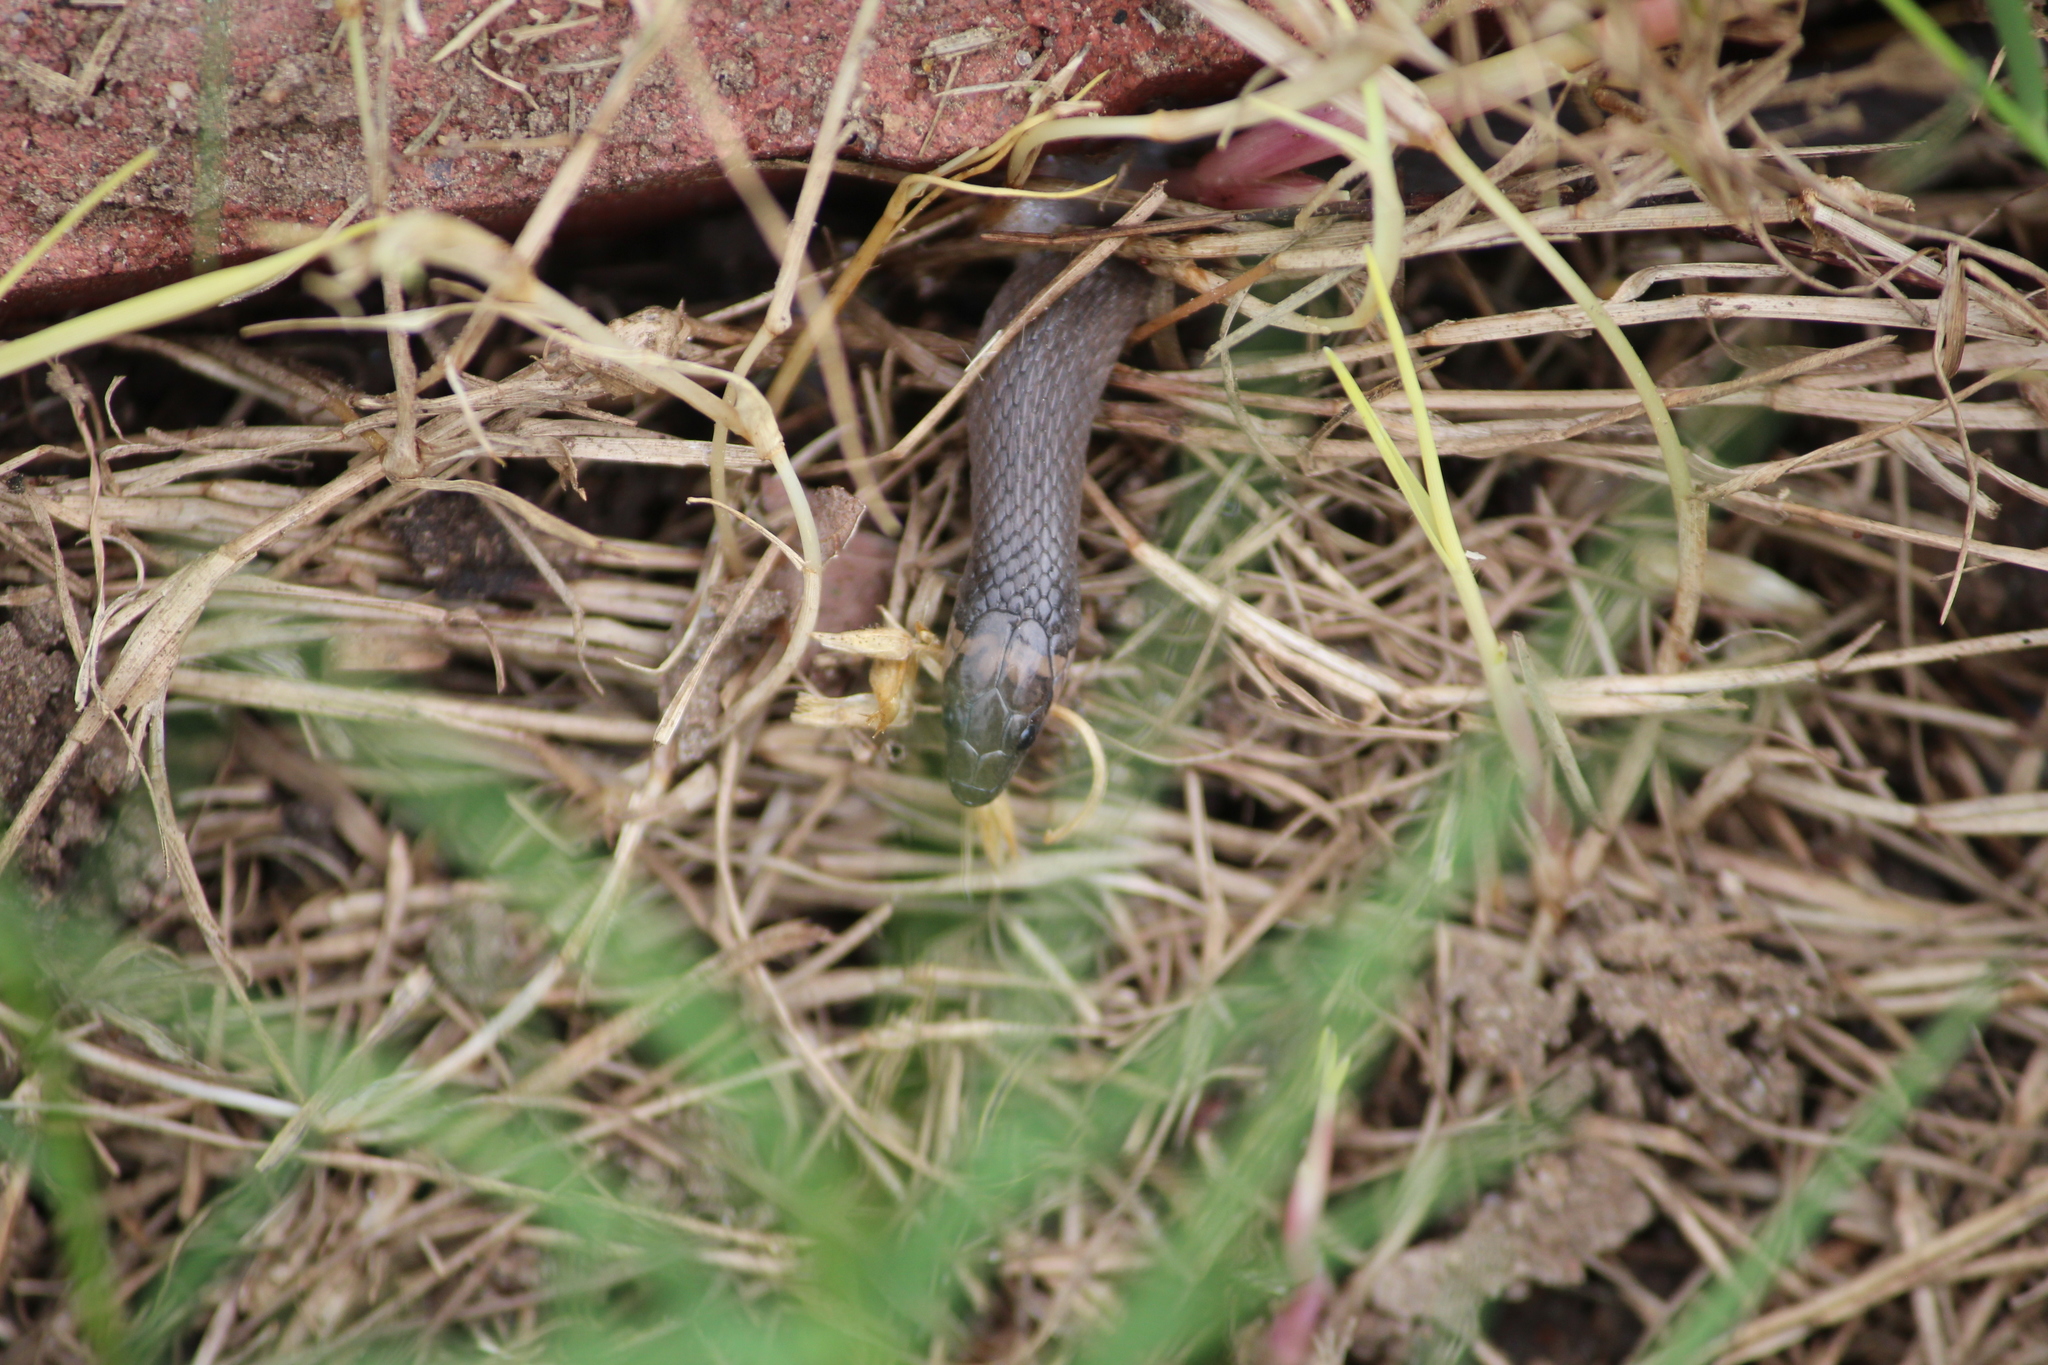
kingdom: Animalia
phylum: Chordata
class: Squamata
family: Colubridae
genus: Haldea
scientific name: Haldea striatula
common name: Rough earth snake
